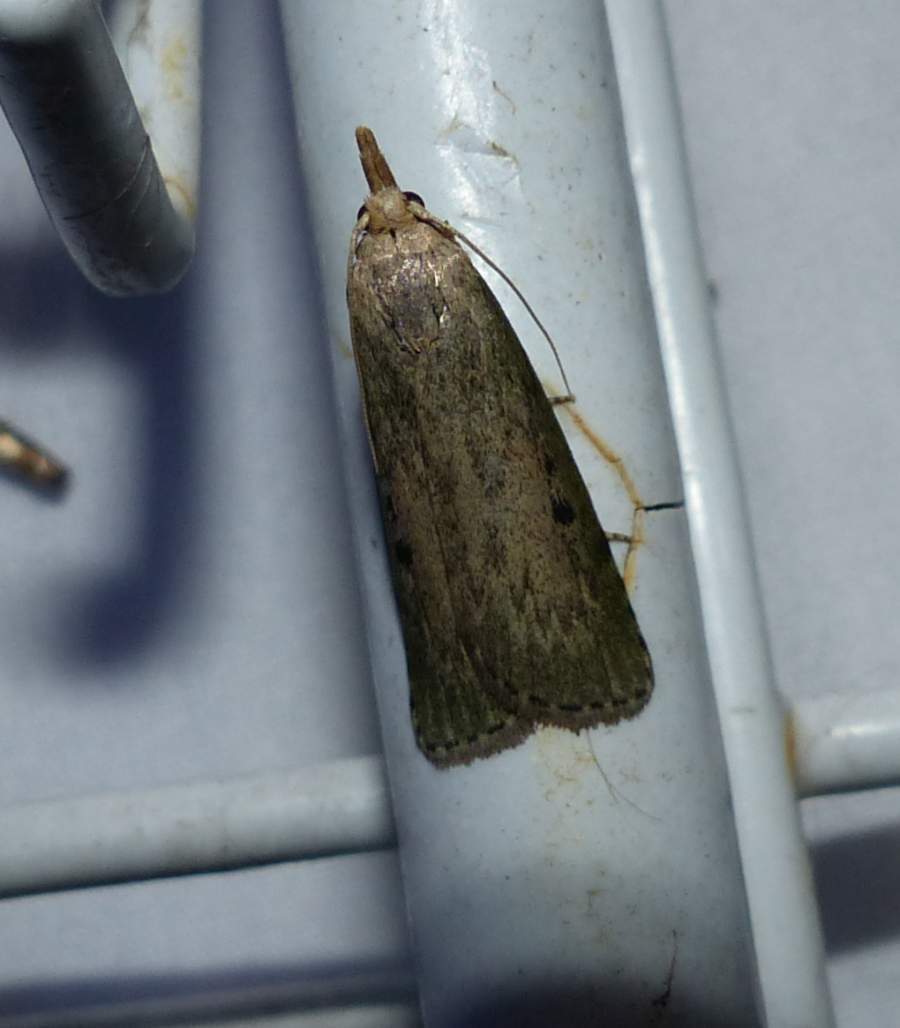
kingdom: Animalia
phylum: Arthropoda
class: Insecta
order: Lepidoptera
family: Pyralidae
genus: Aphomia
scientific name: Aphomia sociella
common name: Bee moth
